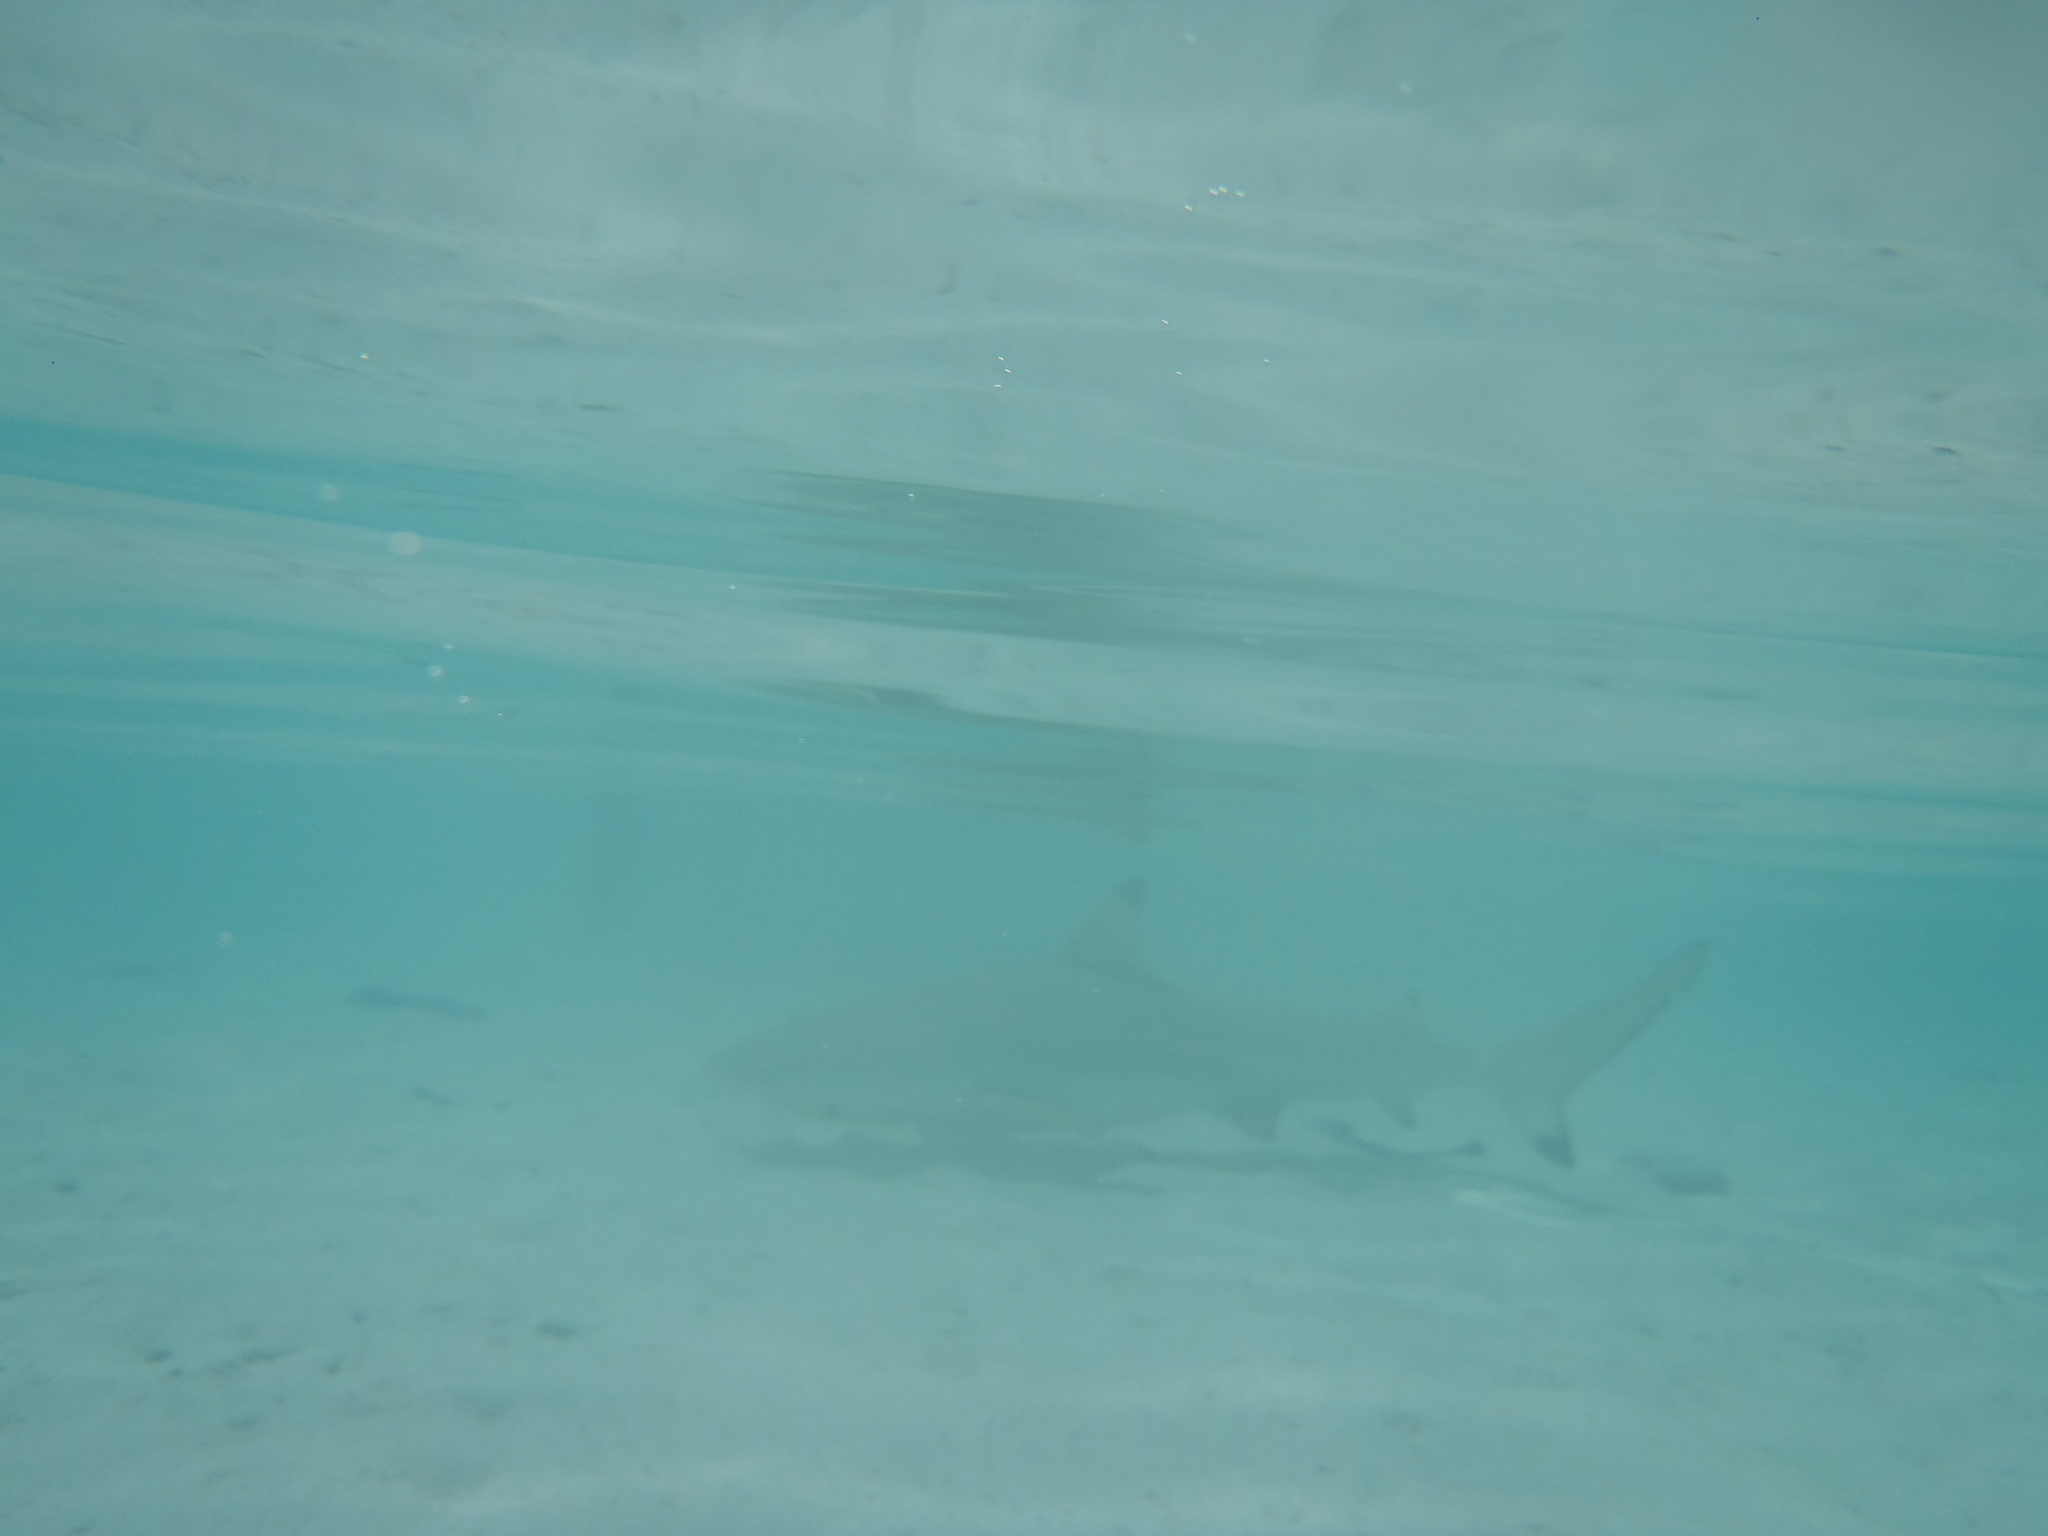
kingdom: Animalia
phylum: Chordata
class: Elasmobranchii
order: Carcharhiniformes
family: Carcharhinidae
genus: Carcharhinus
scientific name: Carcharhinus melanopterus
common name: Blacktip reef shark
